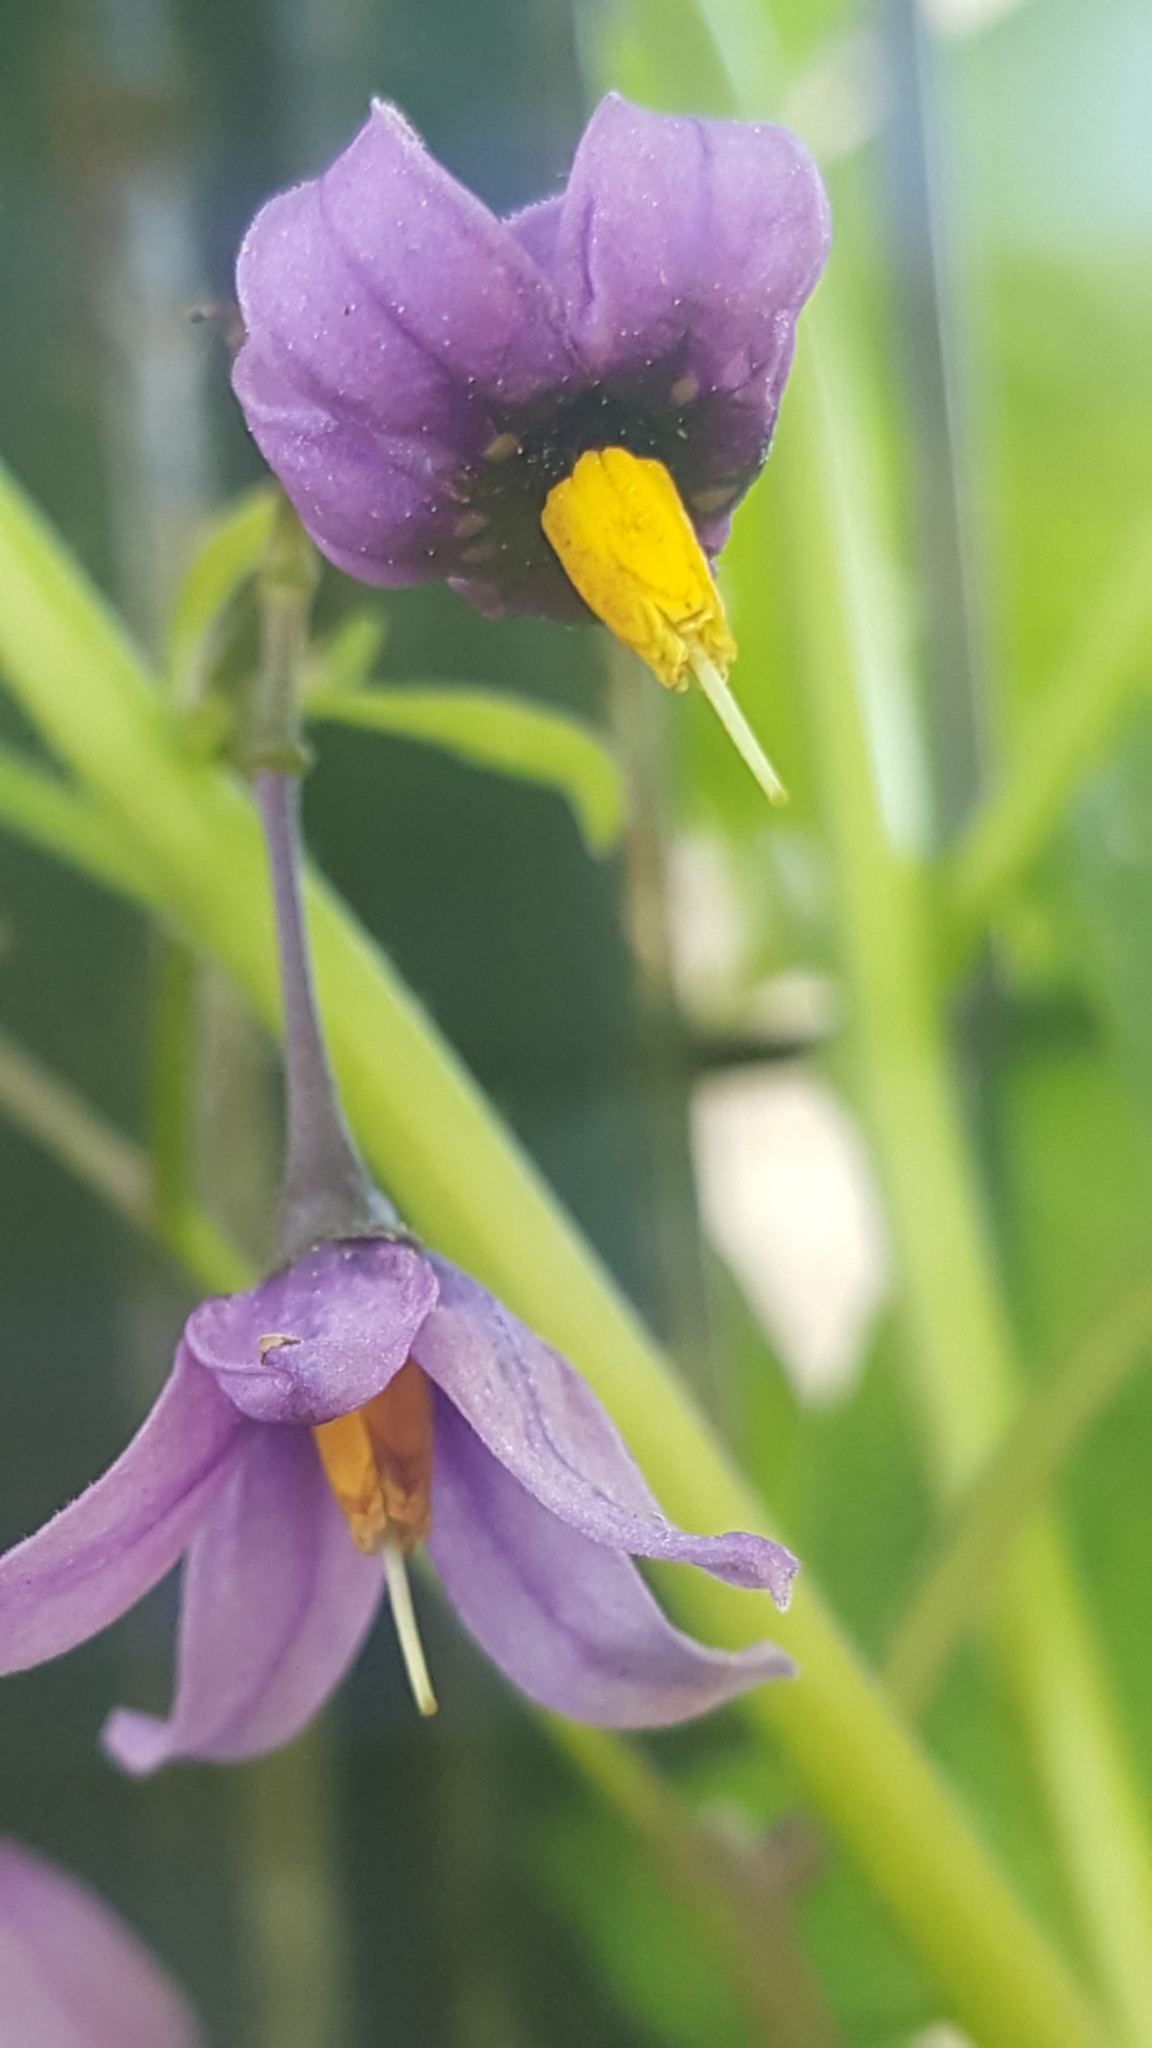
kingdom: Plantae
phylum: Tracheophyta
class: Magnoliopsida
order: Solanales
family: Solanaceae
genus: Solanum
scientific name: Solanum dulcamara
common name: Climbing nightshade
